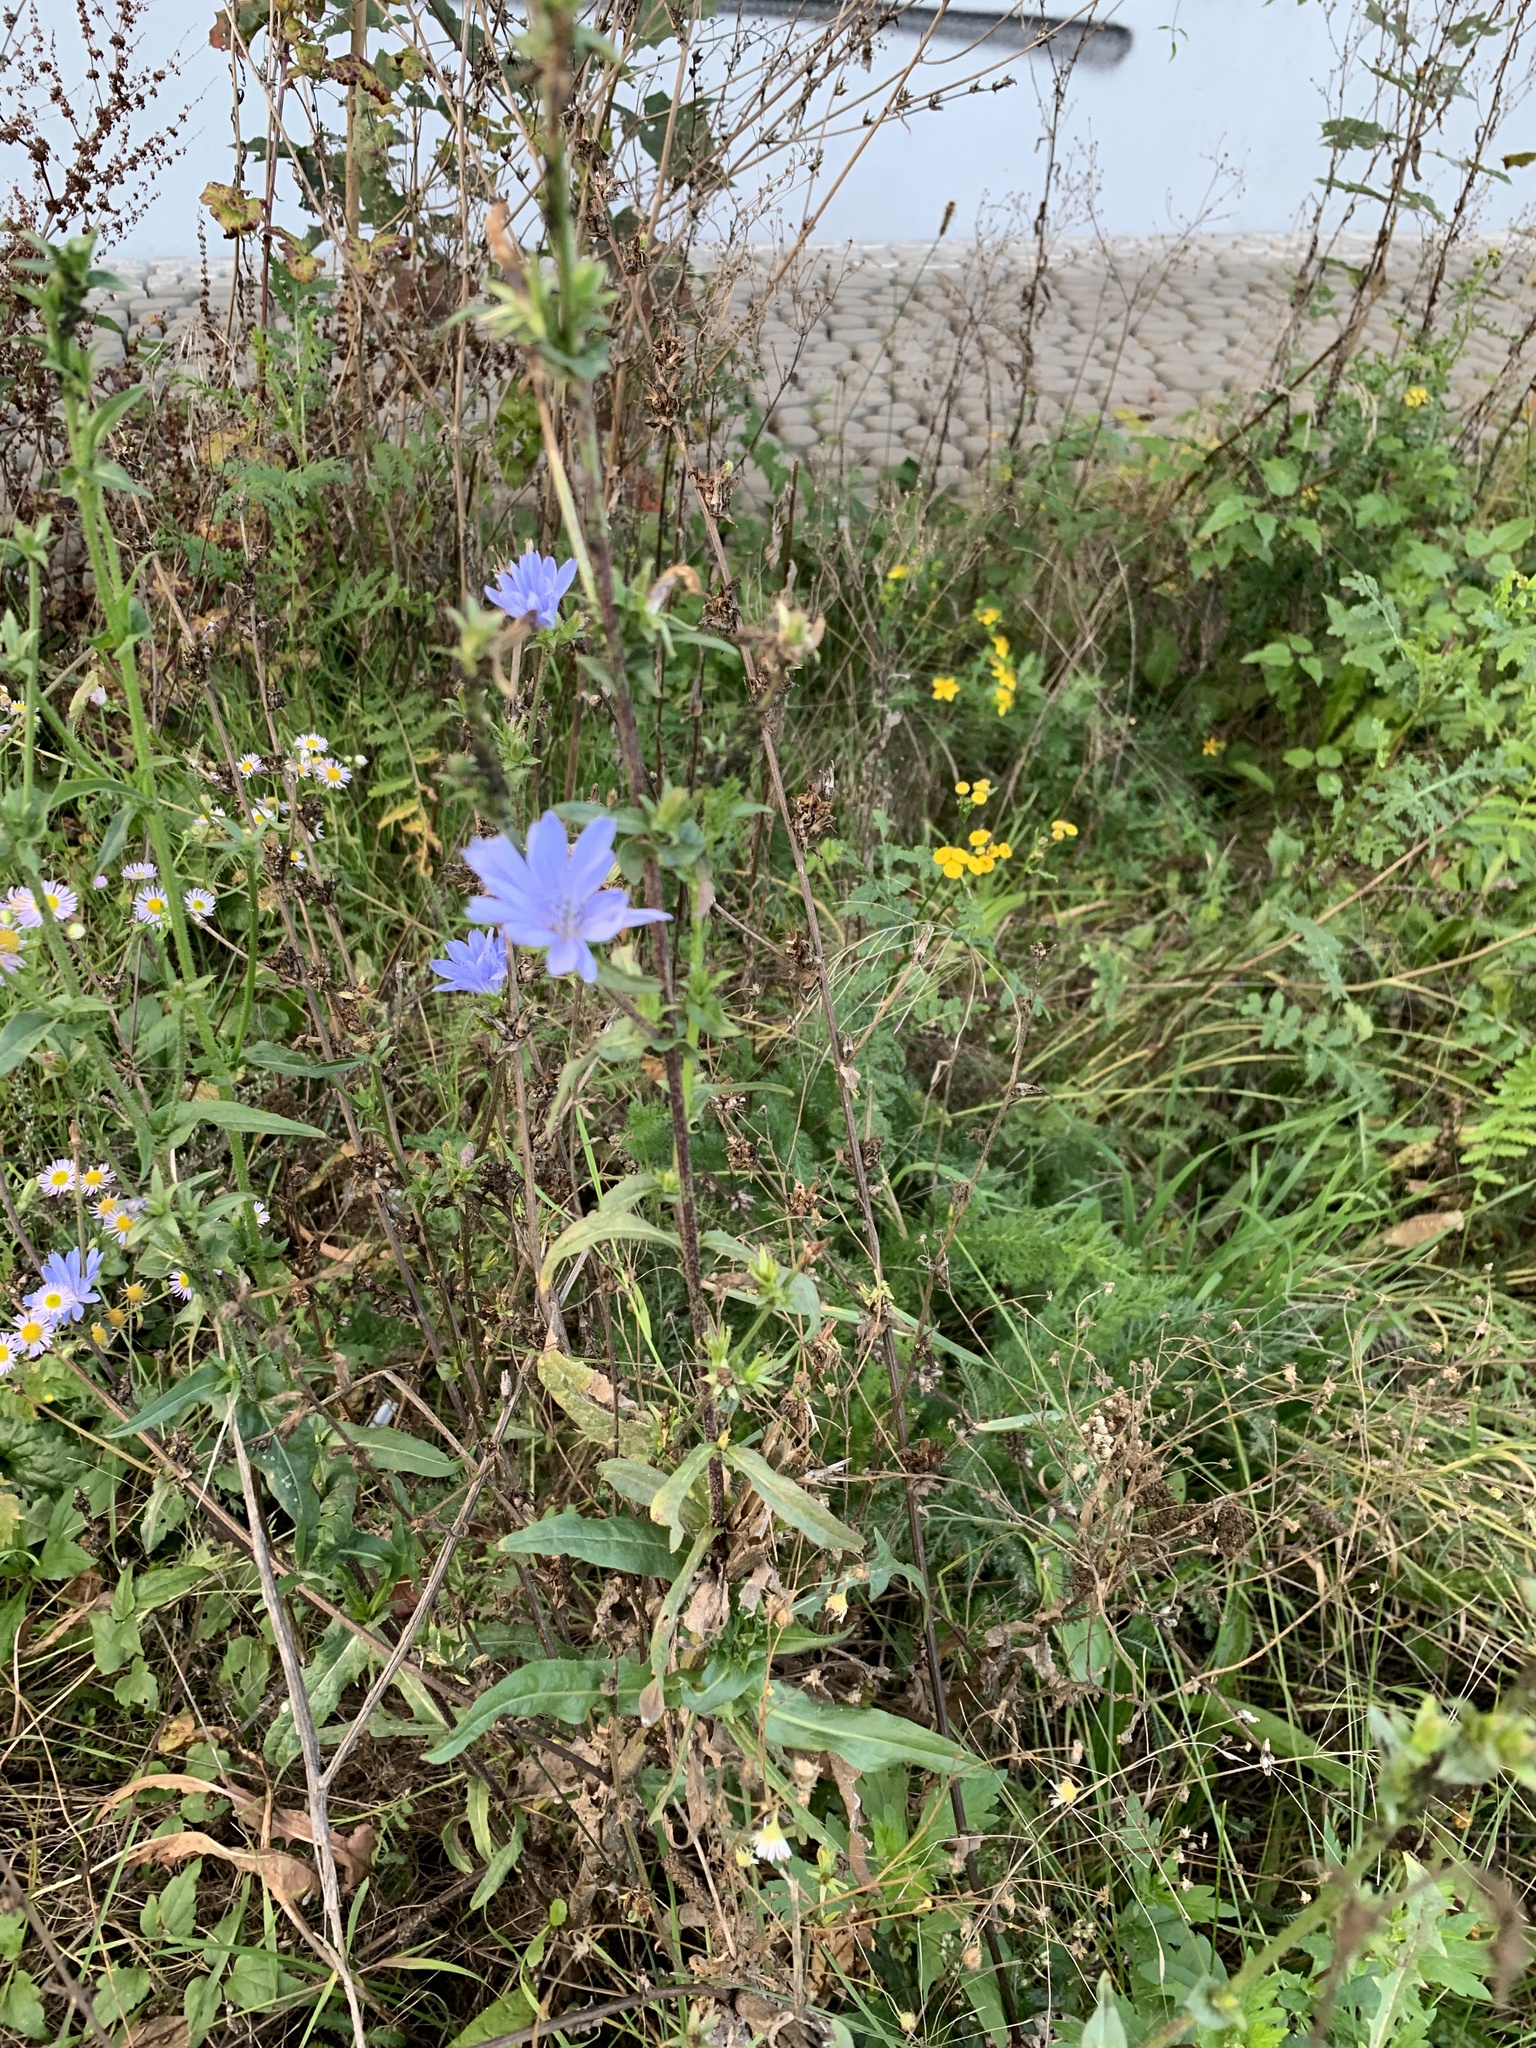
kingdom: Plantae
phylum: Tracheophyta
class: Magnoliopsida
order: Asterales
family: Asteraceae
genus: Cichorium
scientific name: Cichorium intybus
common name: Chicory
